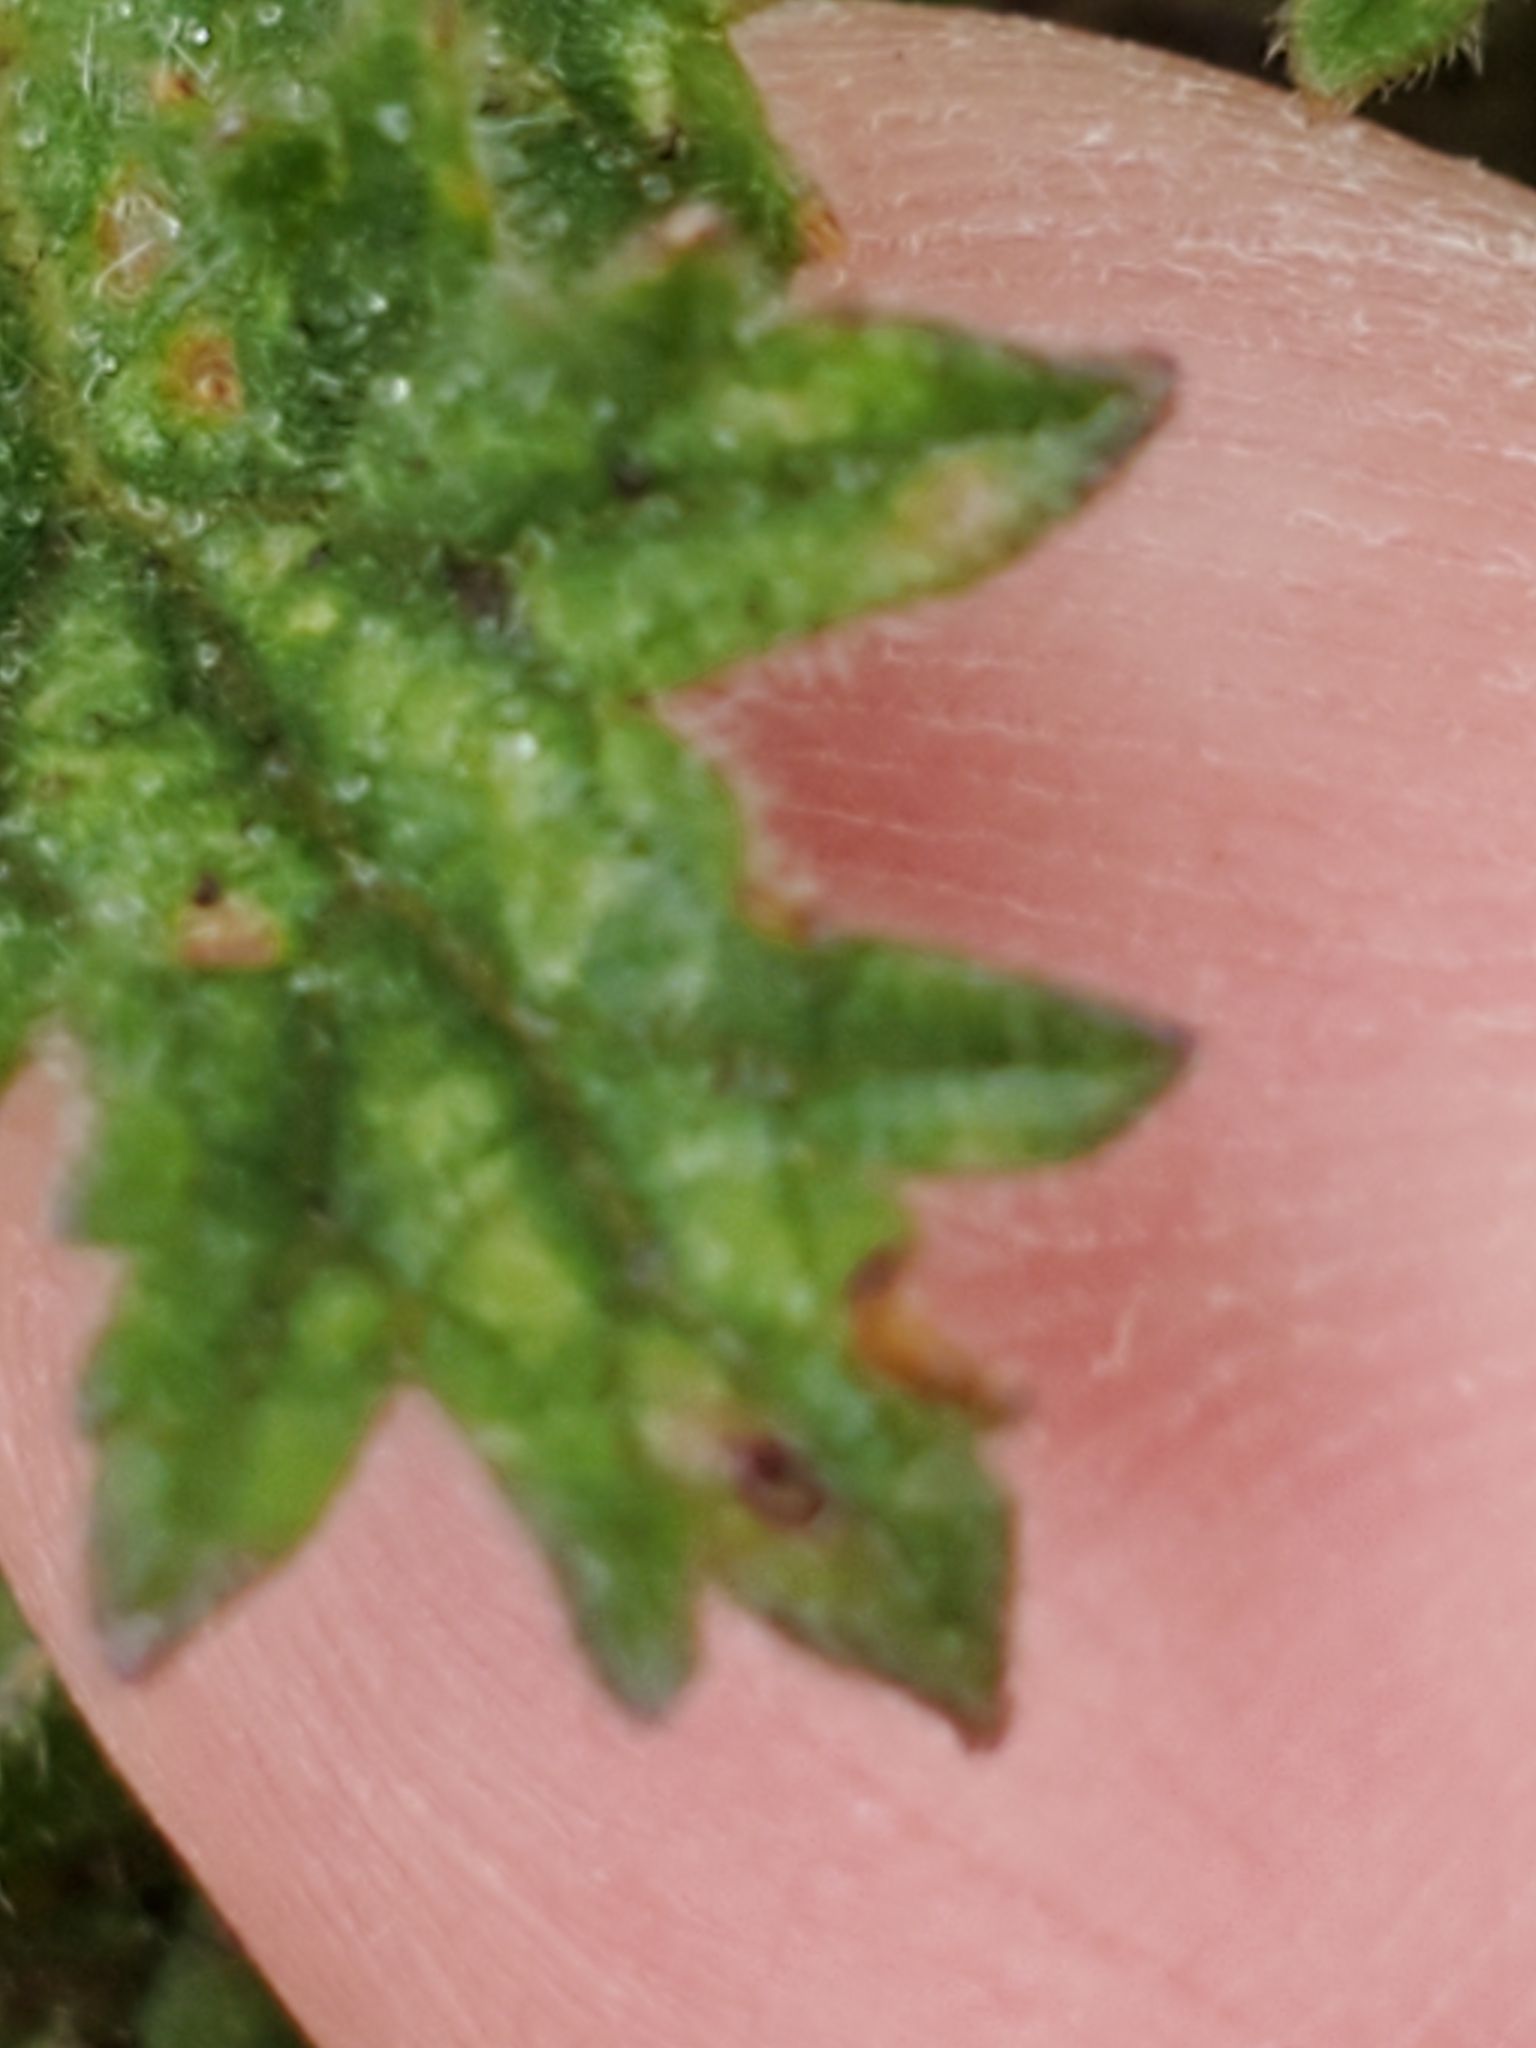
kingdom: Plantae
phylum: Tracheophyta
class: Magnoliopsida
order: Lamiales
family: Verbenaceae
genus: Verbena
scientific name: Verbena tumidula
